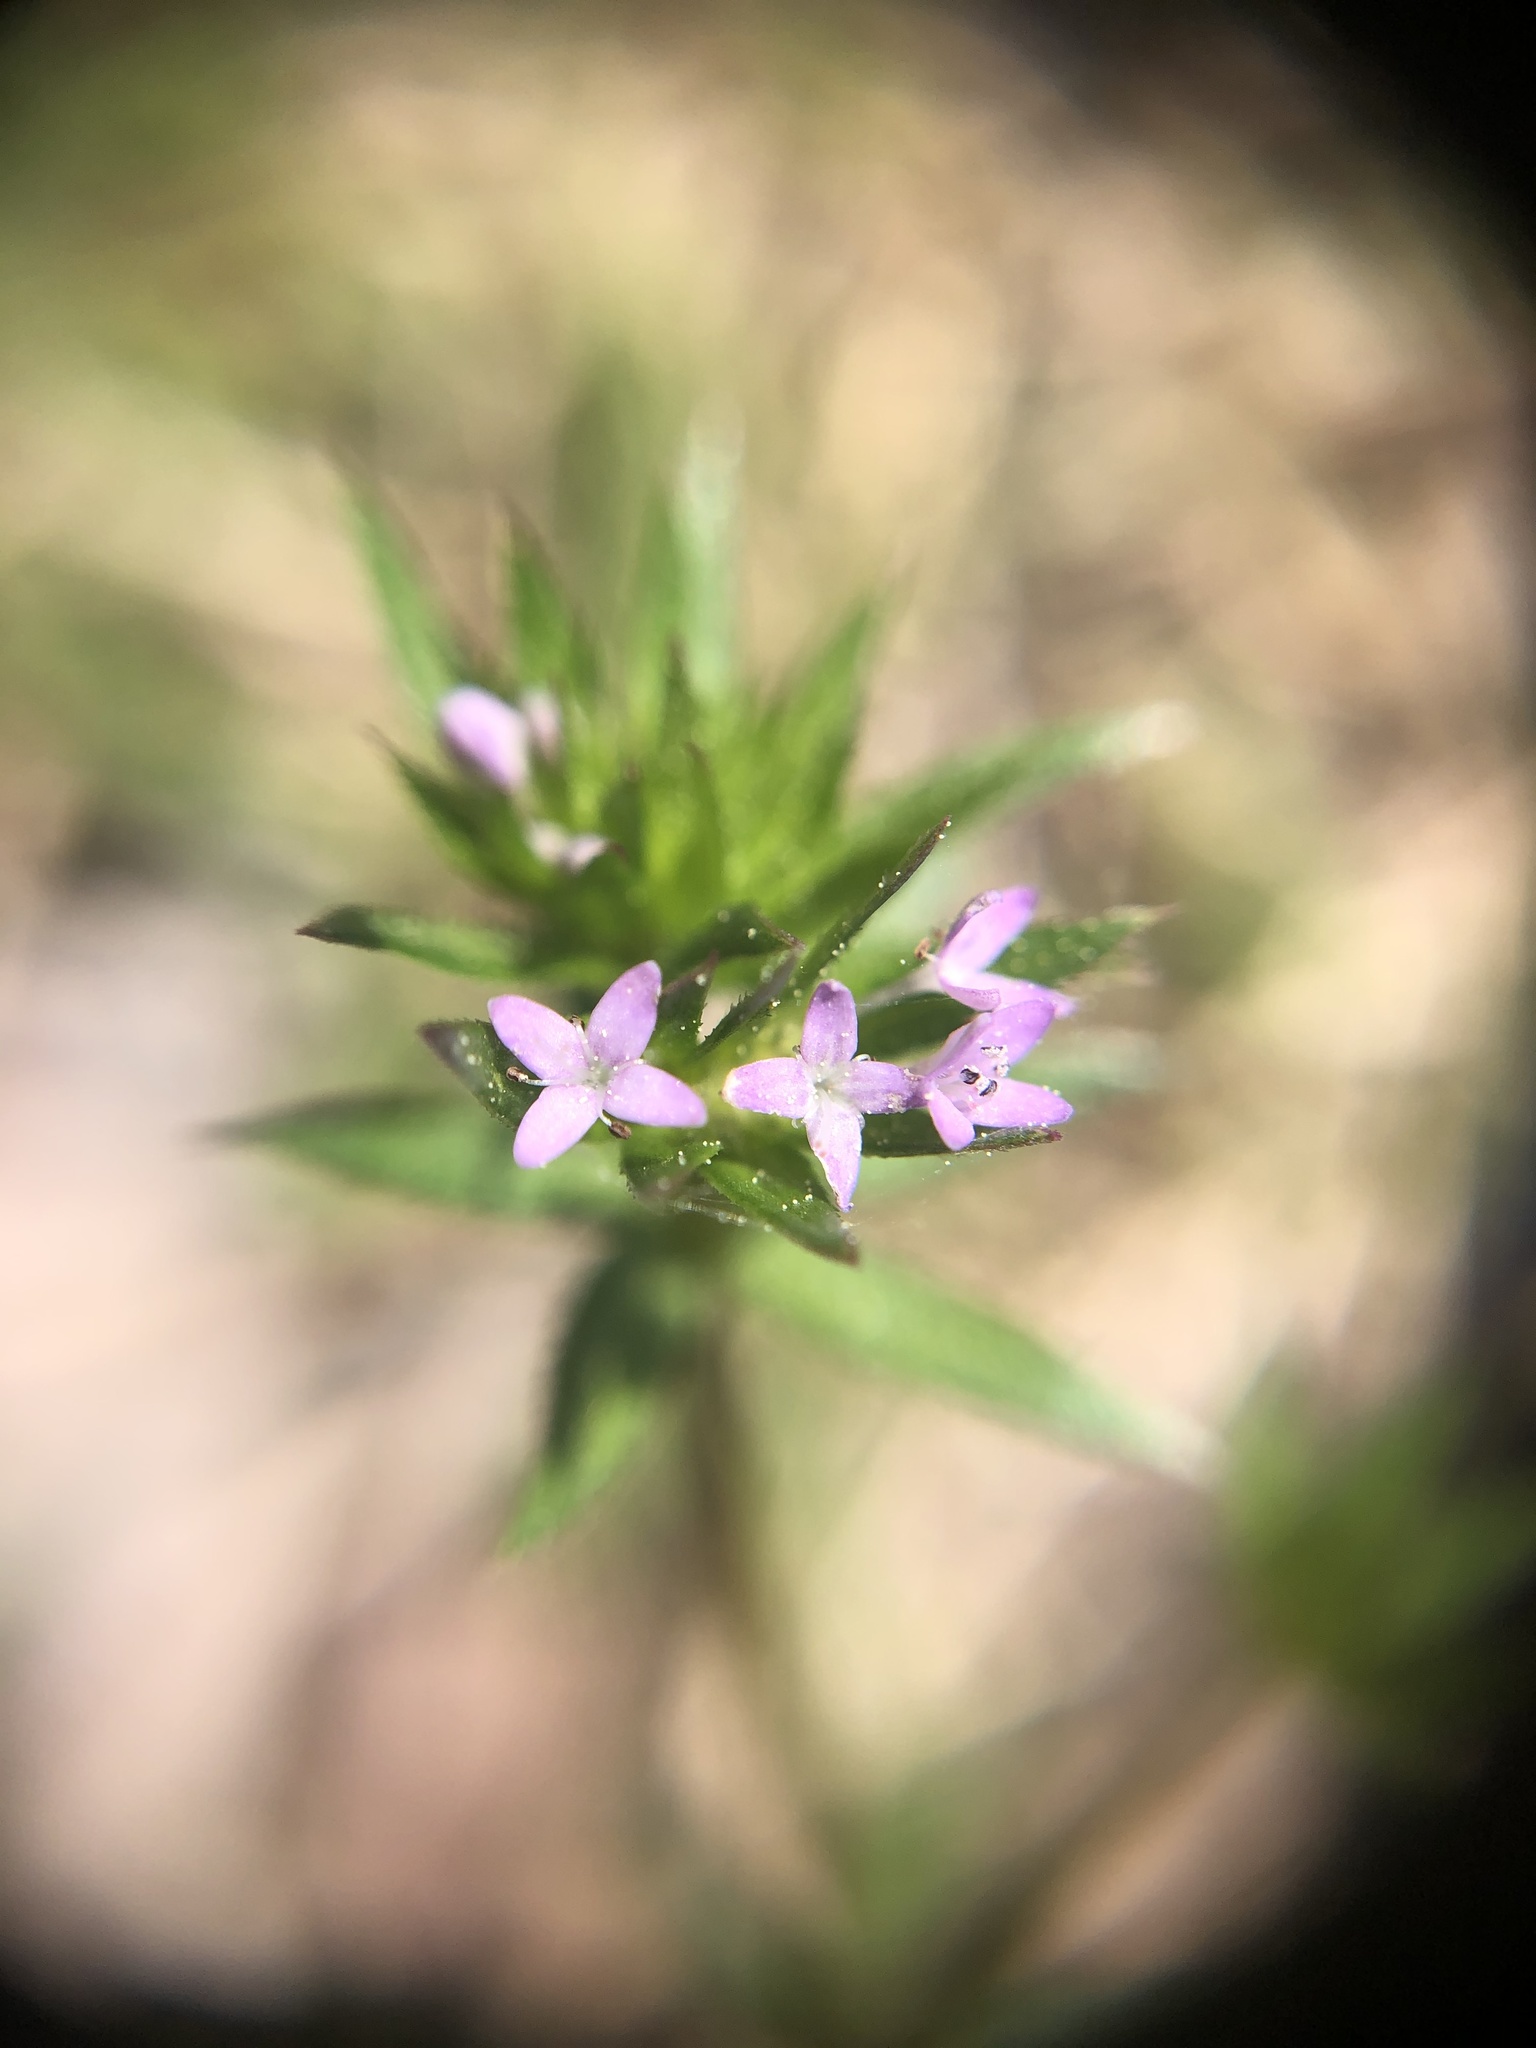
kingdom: Plantae
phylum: Tracheophyta
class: Magnoliopsida
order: Gentianales
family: Rubiaceae
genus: Sherardia
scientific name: Sherardia arvensis
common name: Field madder
